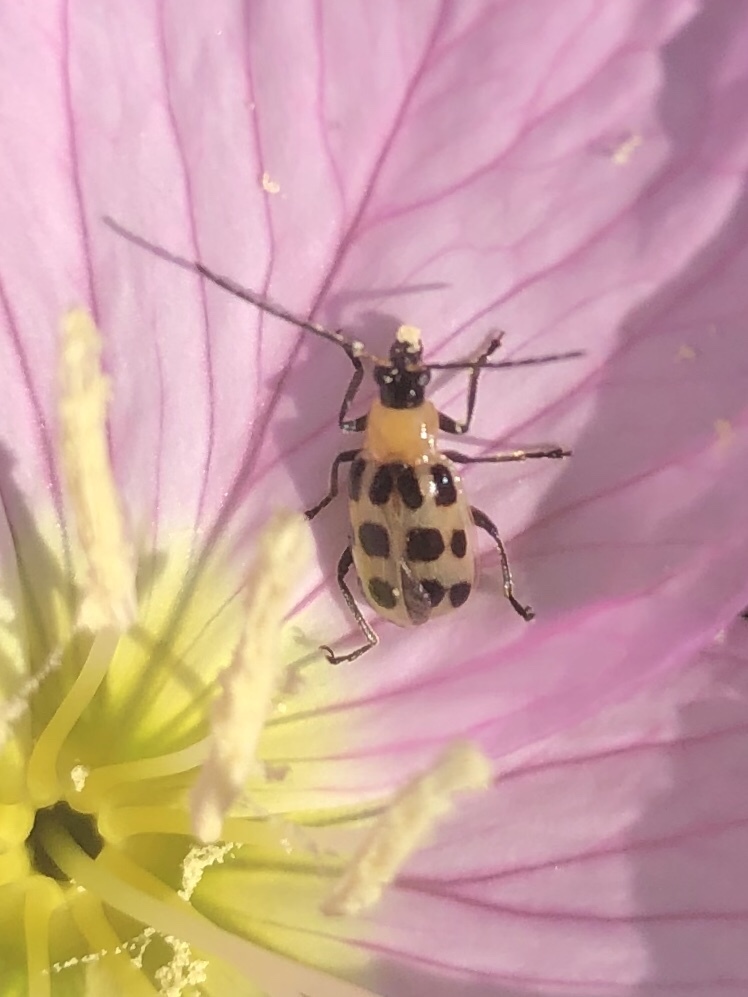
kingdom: Animalia
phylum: Arthropoda
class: Insecta
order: Coleoptera
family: Chrysomelidae
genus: Diabrotica
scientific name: Diabrotica undecimpunctata
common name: Spotted cucumber beetle
